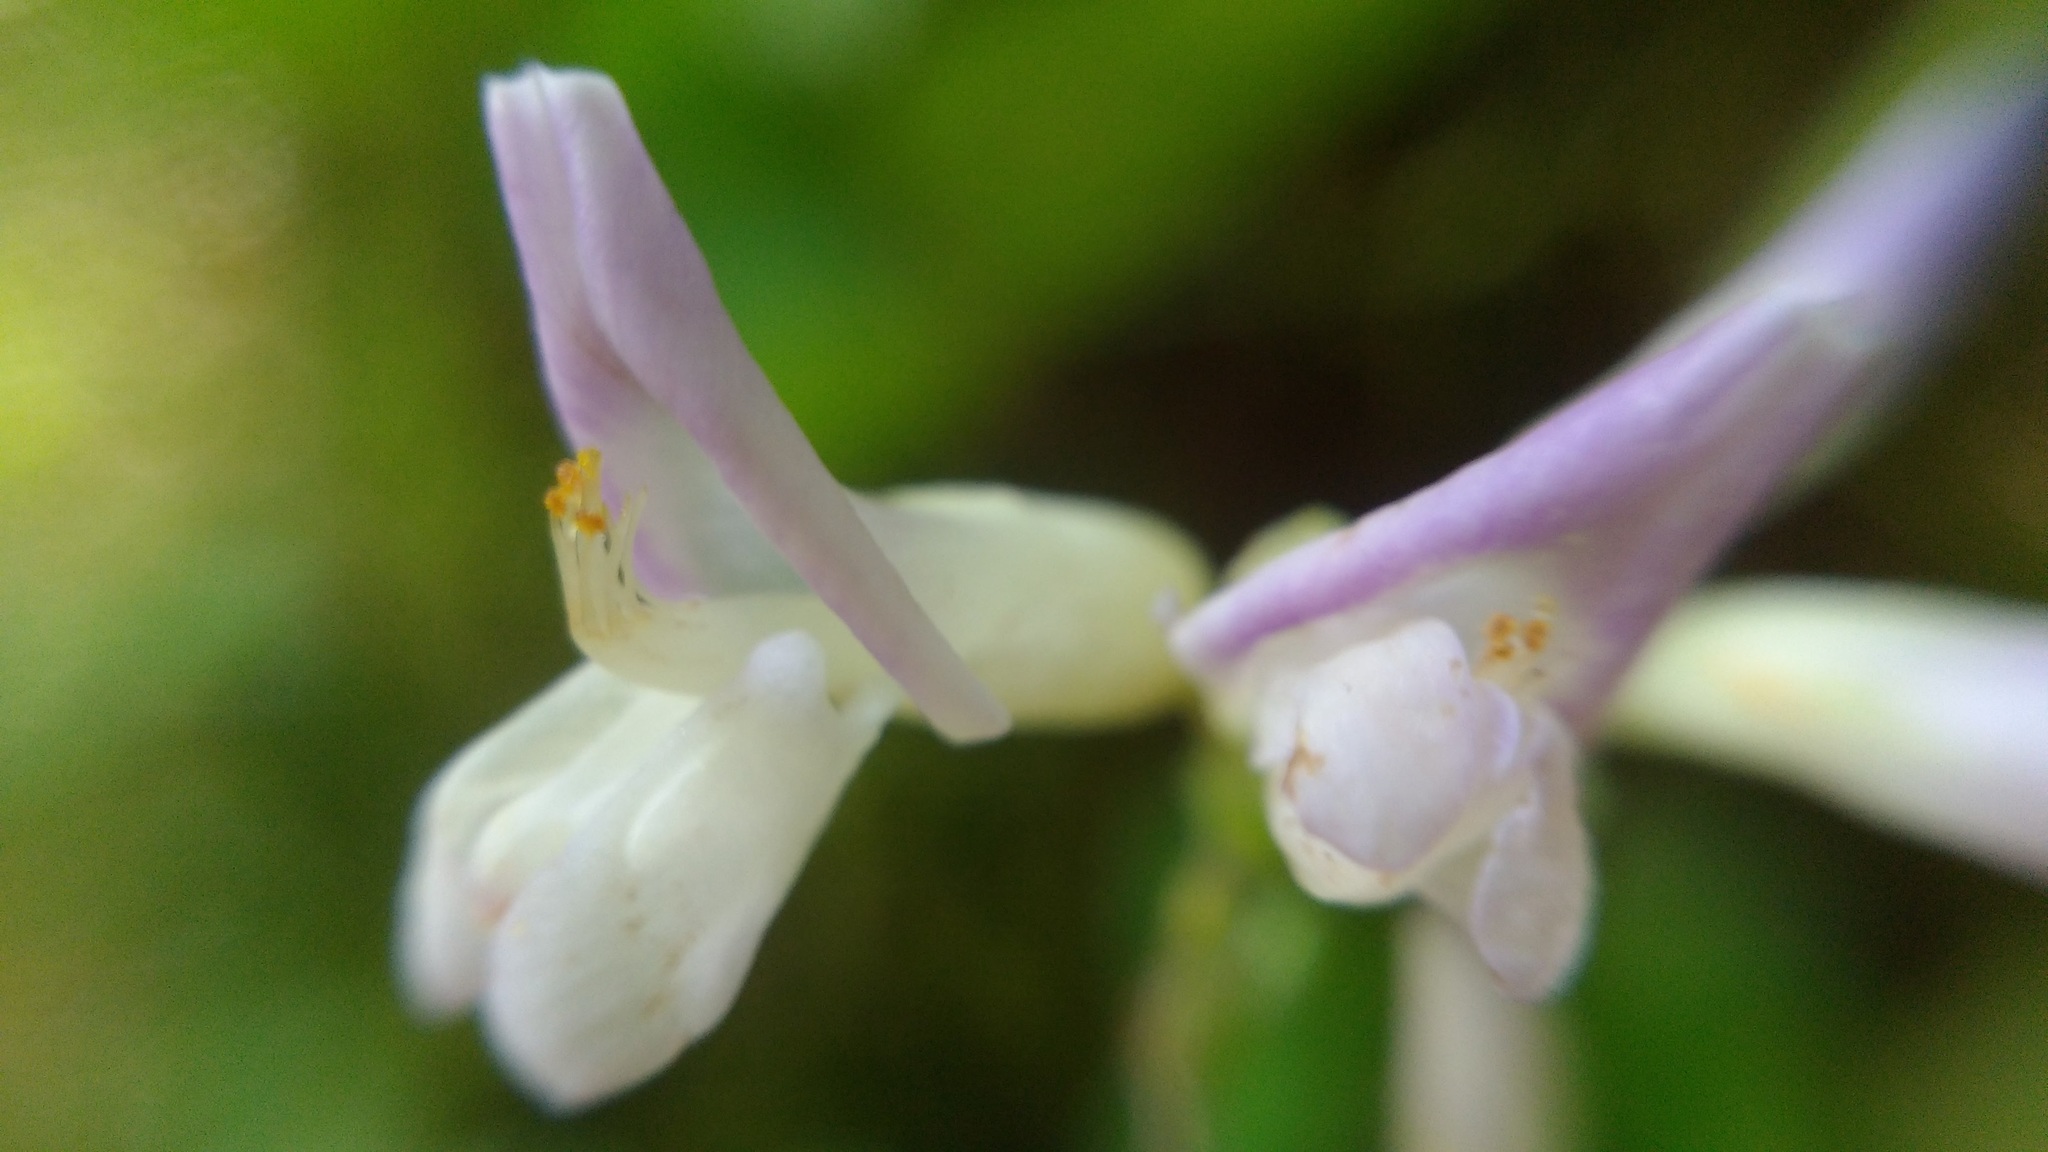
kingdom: Plantae
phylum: Tracheophyta
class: Magnoliopsida
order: Fabales
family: Fabaceae
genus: Amphicarpaea
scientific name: Amphicarpaea bracteata
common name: American hog peanut
